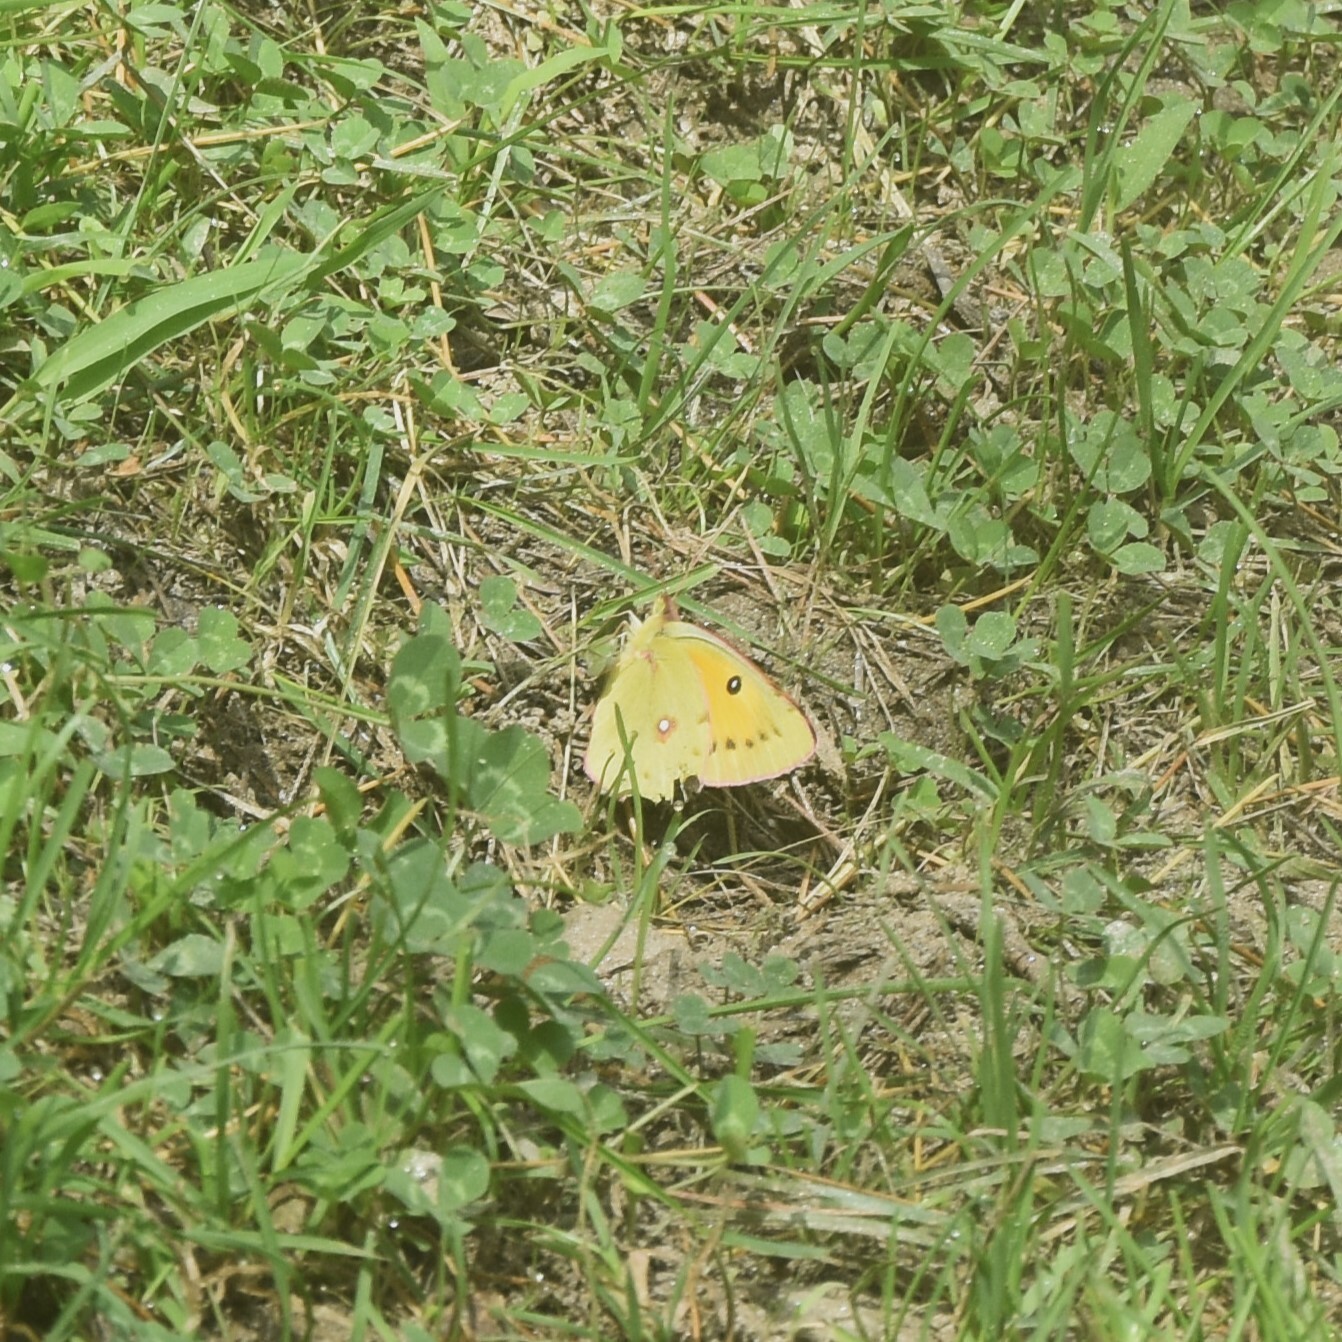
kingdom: Animalia
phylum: Arthropoda
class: Insecta
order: Lepidoptera
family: Pieridae
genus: Colias
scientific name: Colias fieldii
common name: Dark clouded yellow
